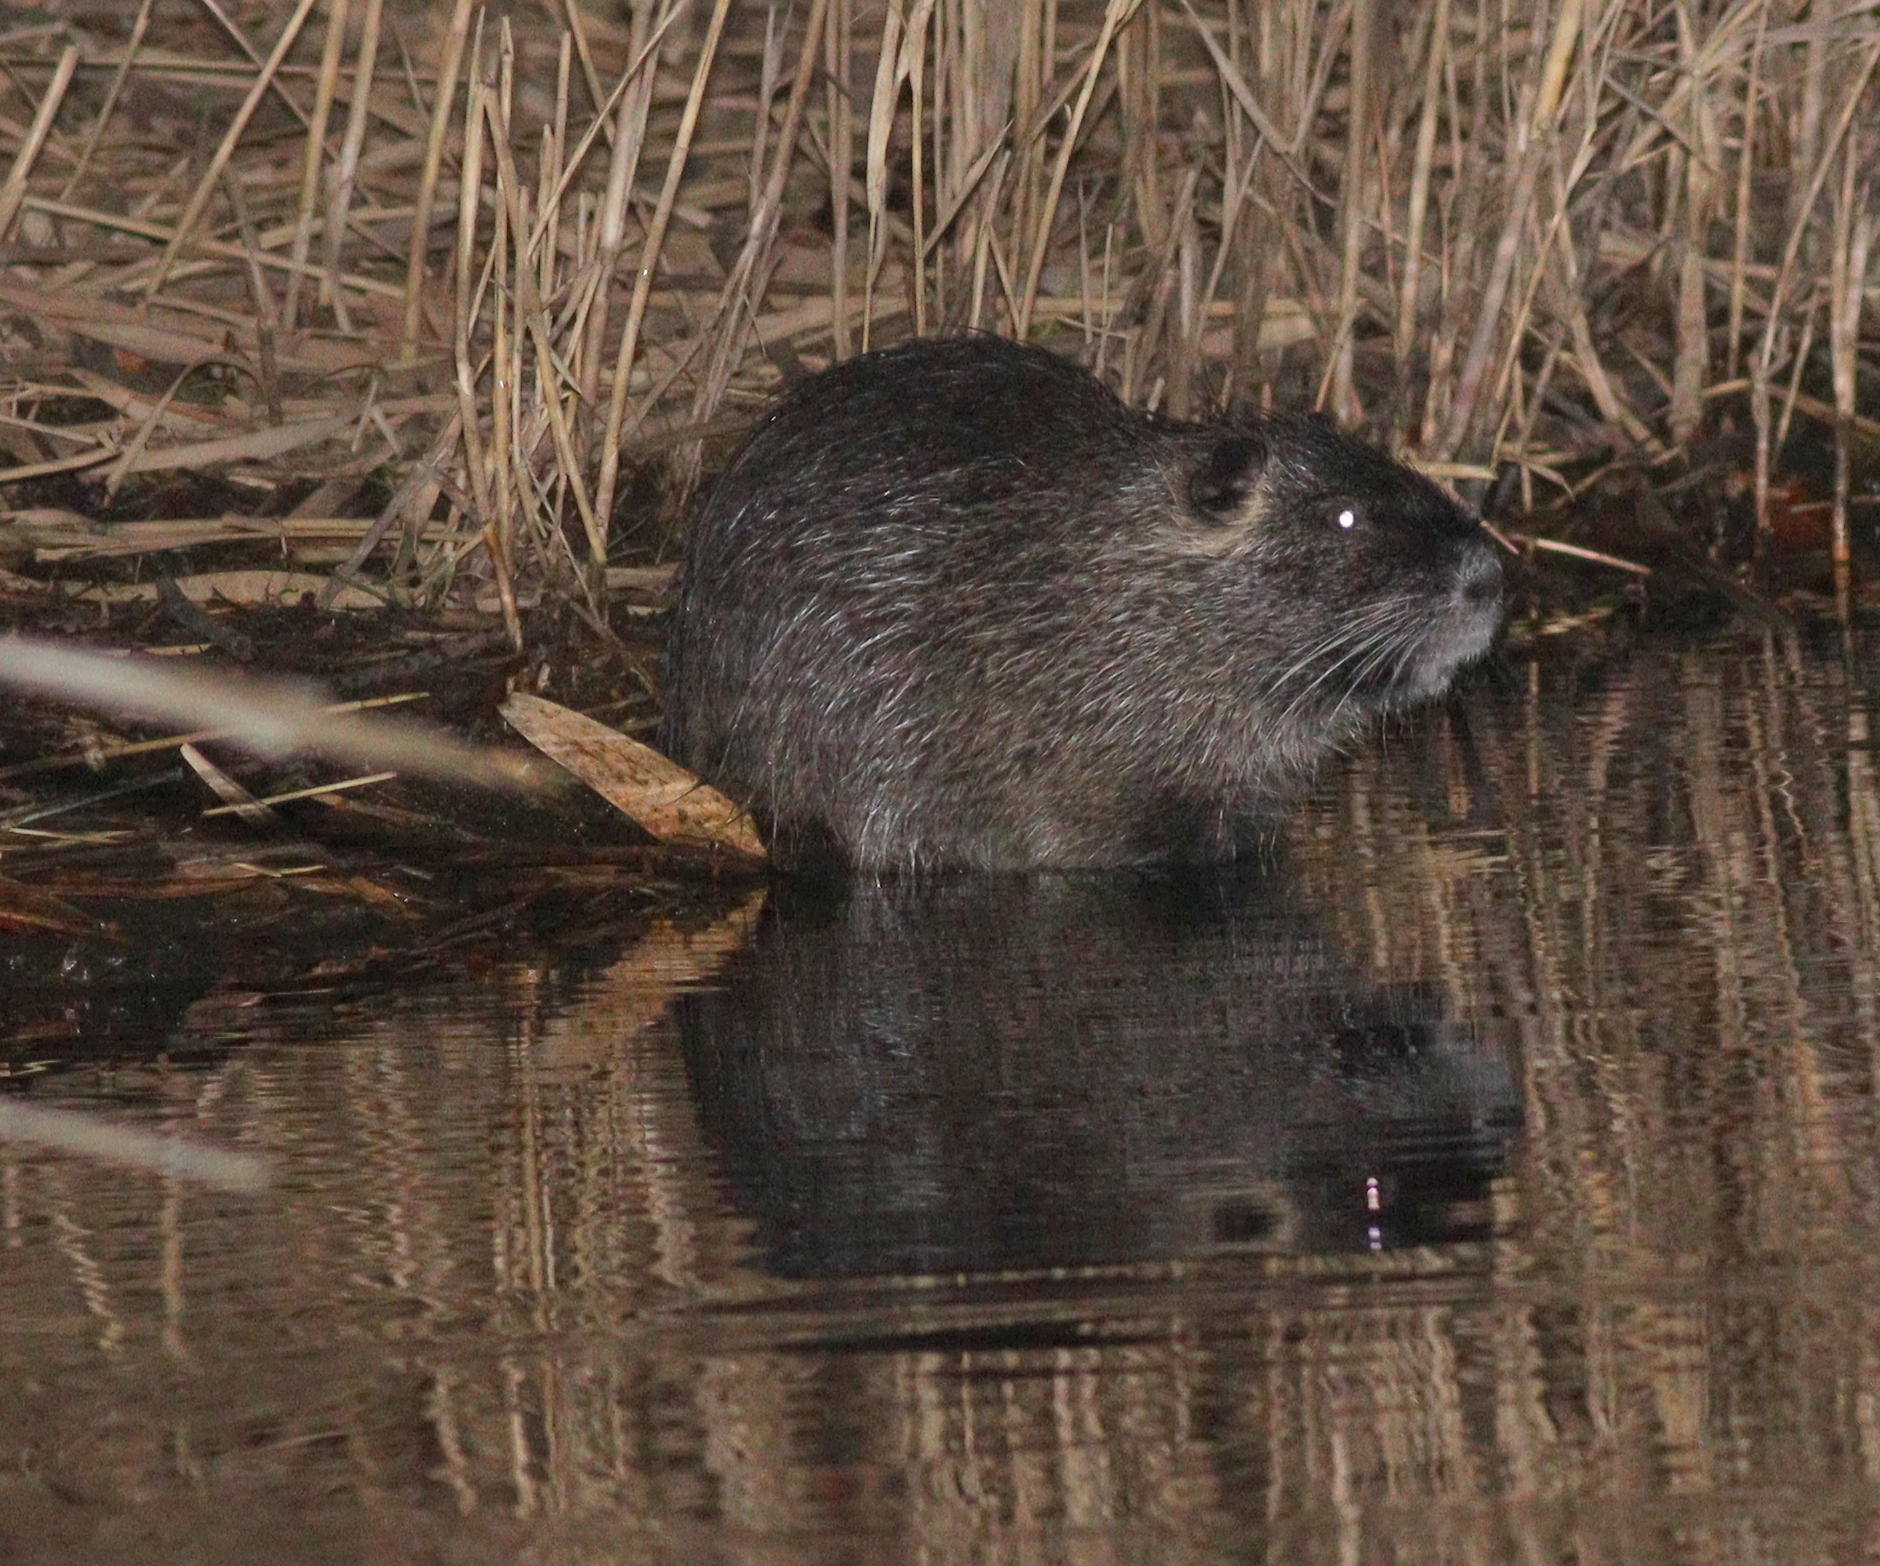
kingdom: Animalia
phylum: Chordata
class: Mammalia
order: Rodentia
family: Myocastoridae
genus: Myocastor
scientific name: Myocastor coypus
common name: Coypu
